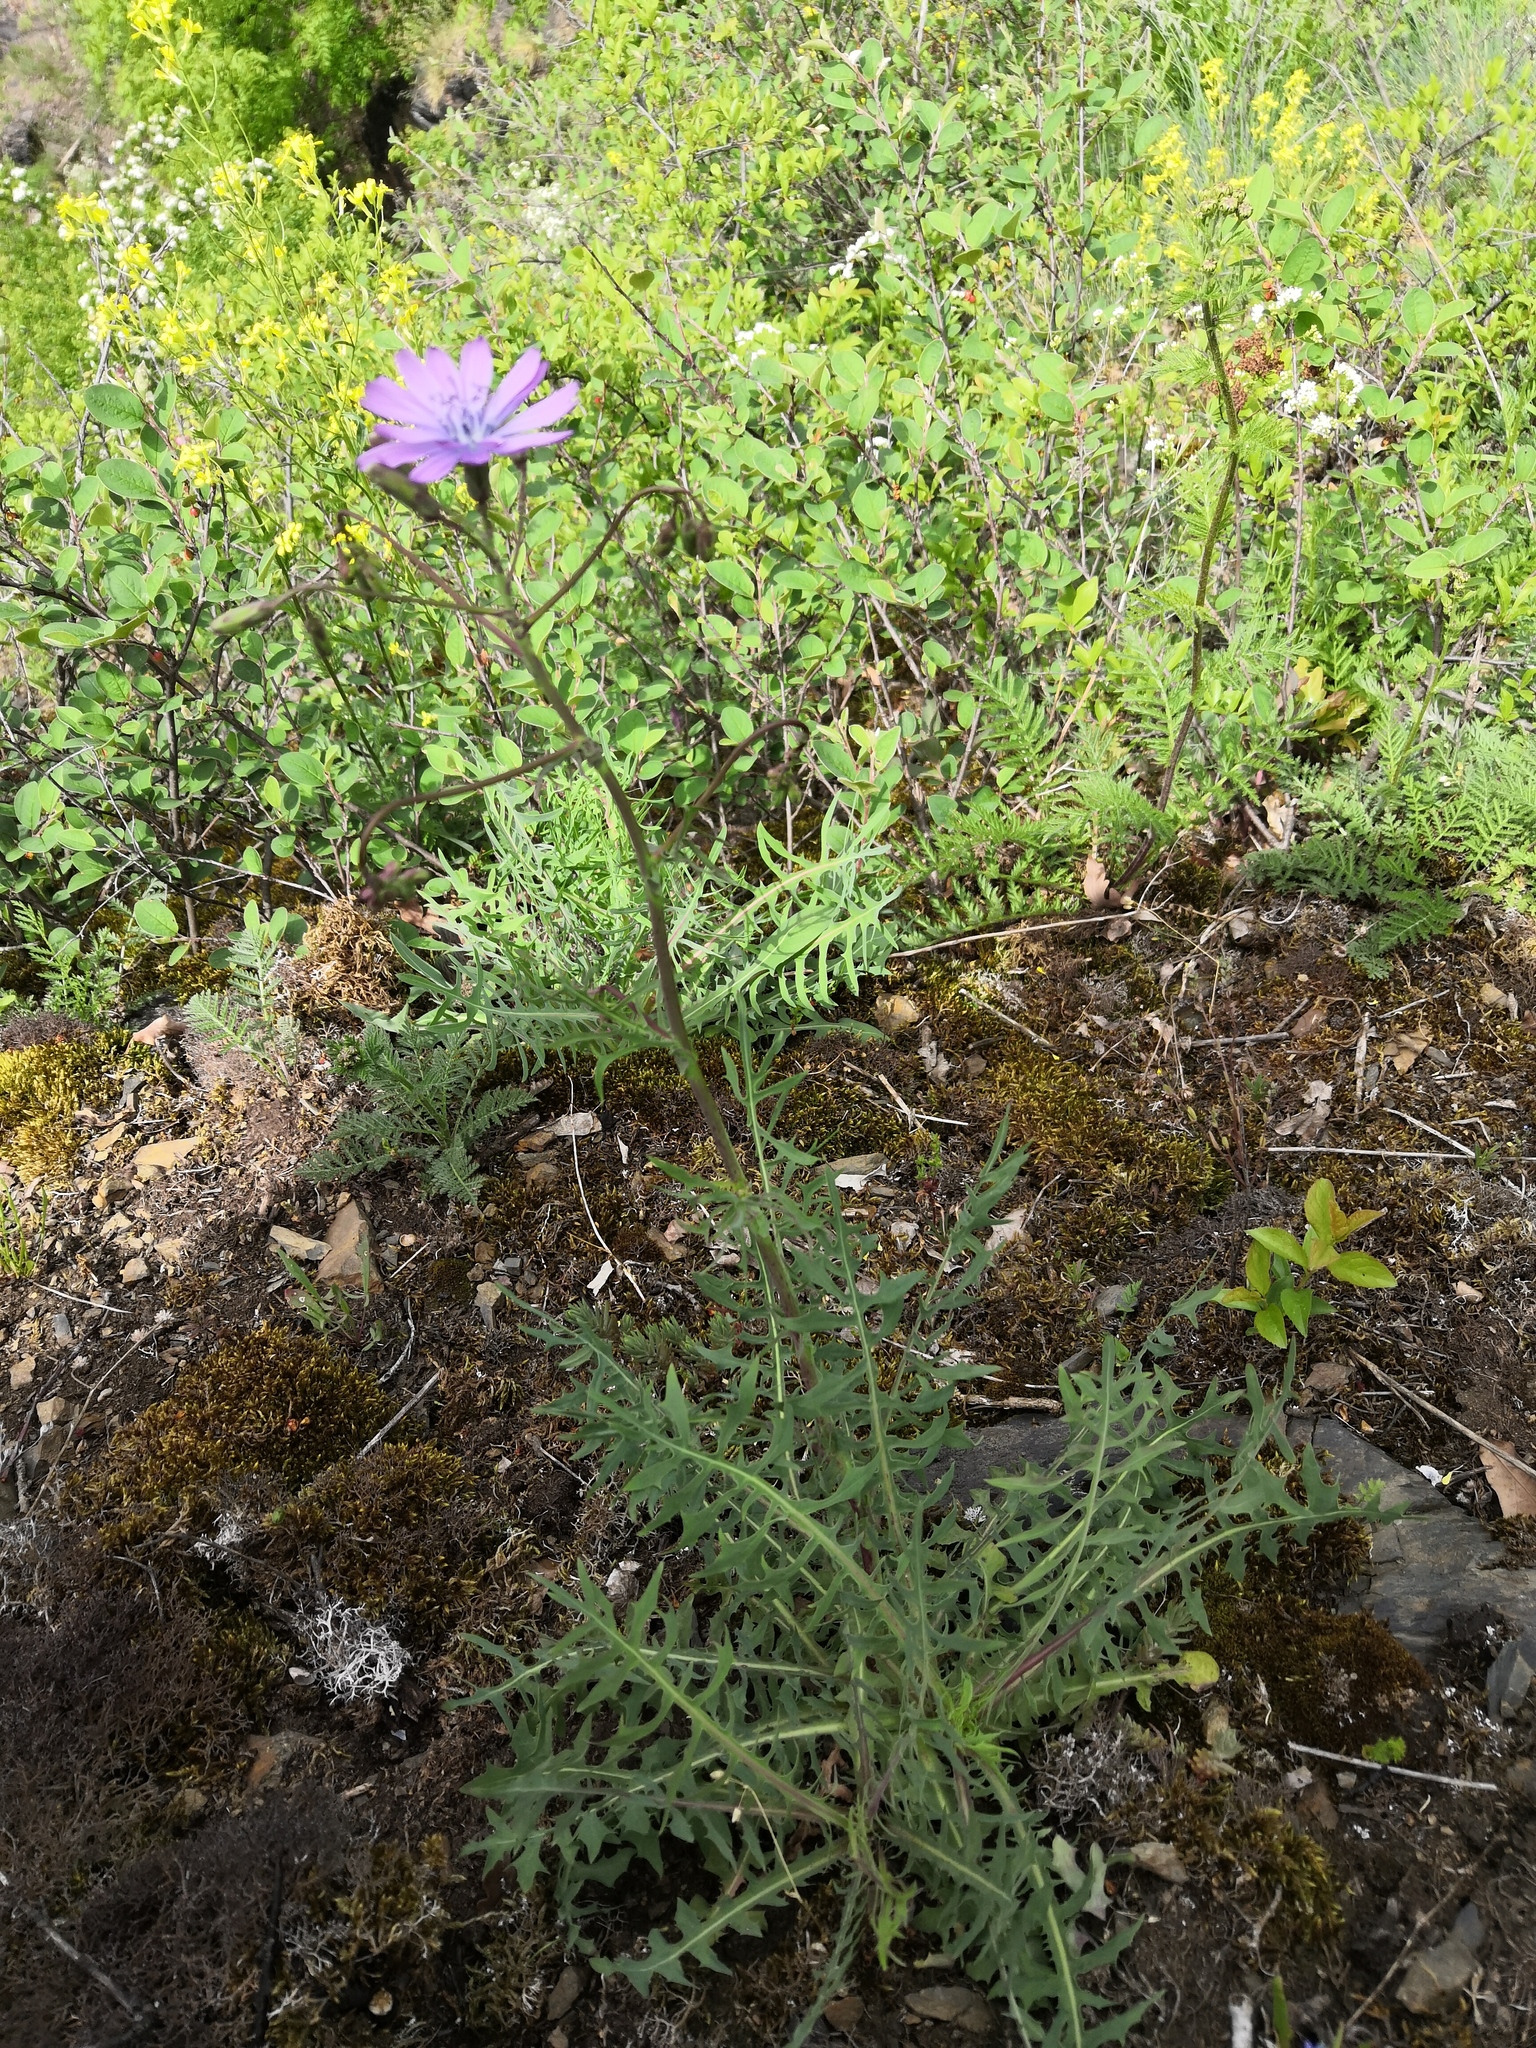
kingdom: Plantae
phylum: Tracheophyta
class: Magnoliopsida
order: Asterales
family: Asteraceae
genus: Lactuca
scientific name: Lactuca perennis
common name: Mountain lettuce
